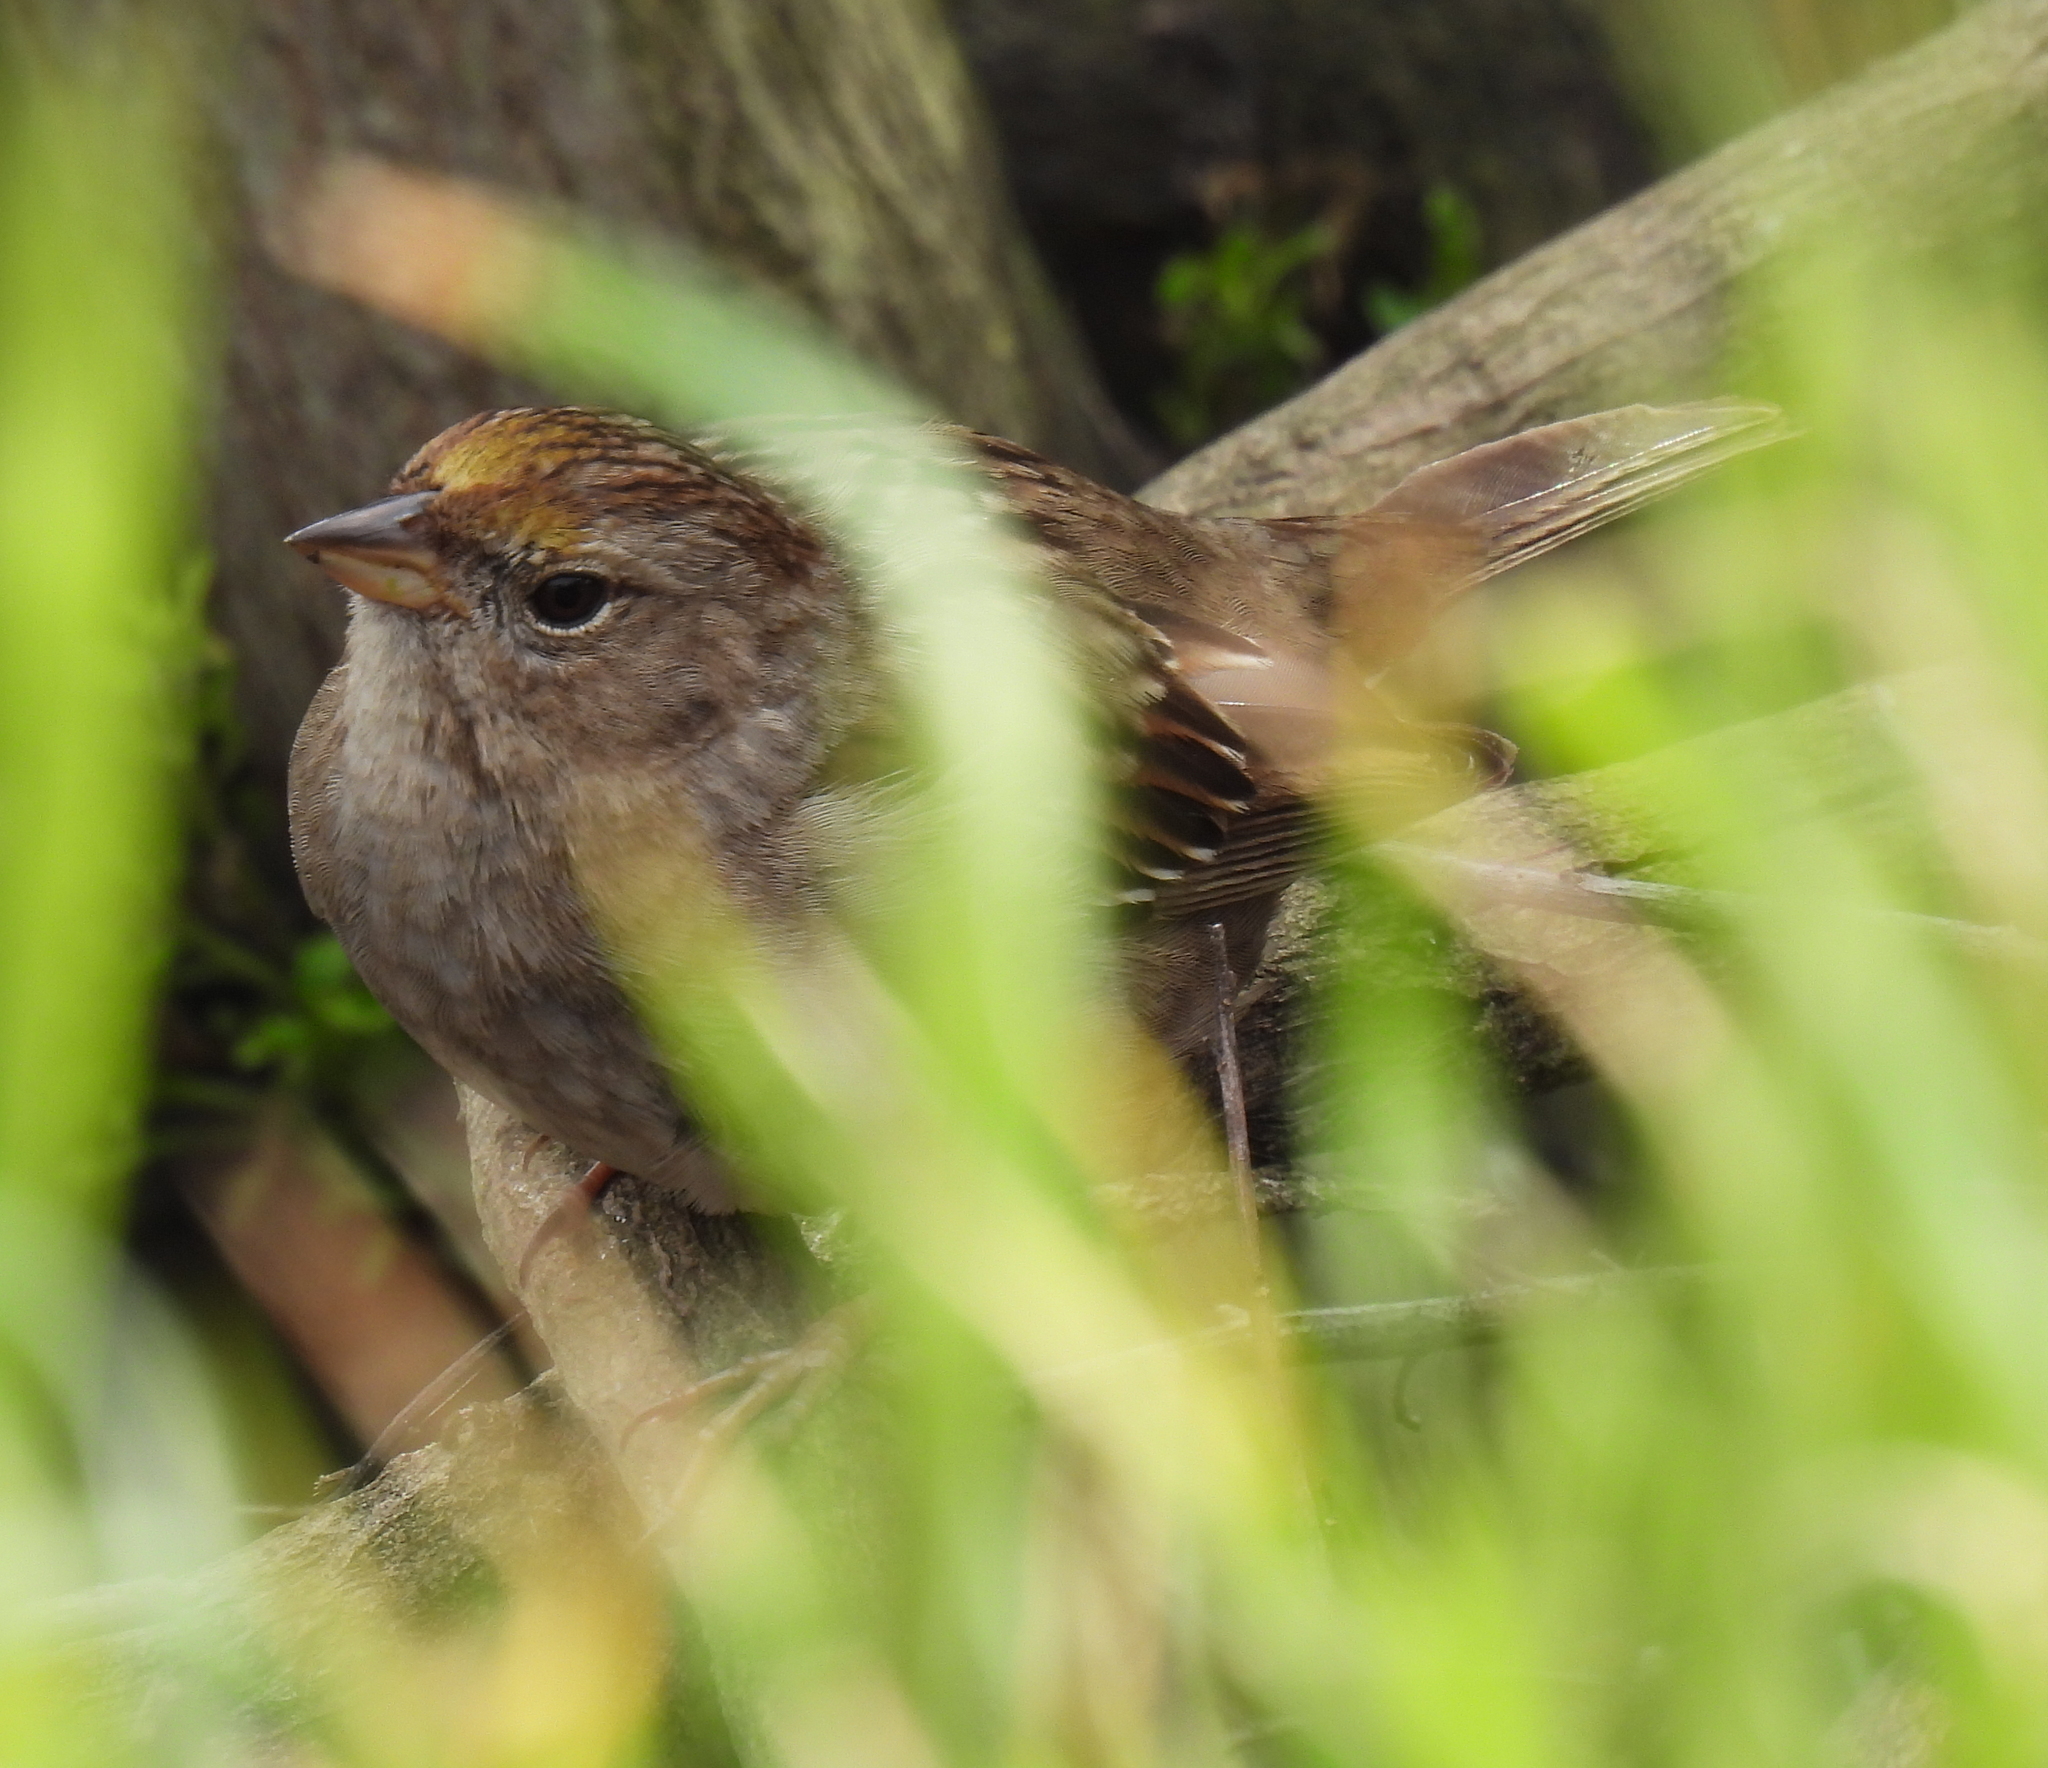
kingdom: Animalia
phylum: Chordata
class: Aves
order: Passeriformes
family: Passerellidae
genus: Zonotrichia
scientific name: Zonotrichia atricapilla
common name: Golden-crowned sparrow
